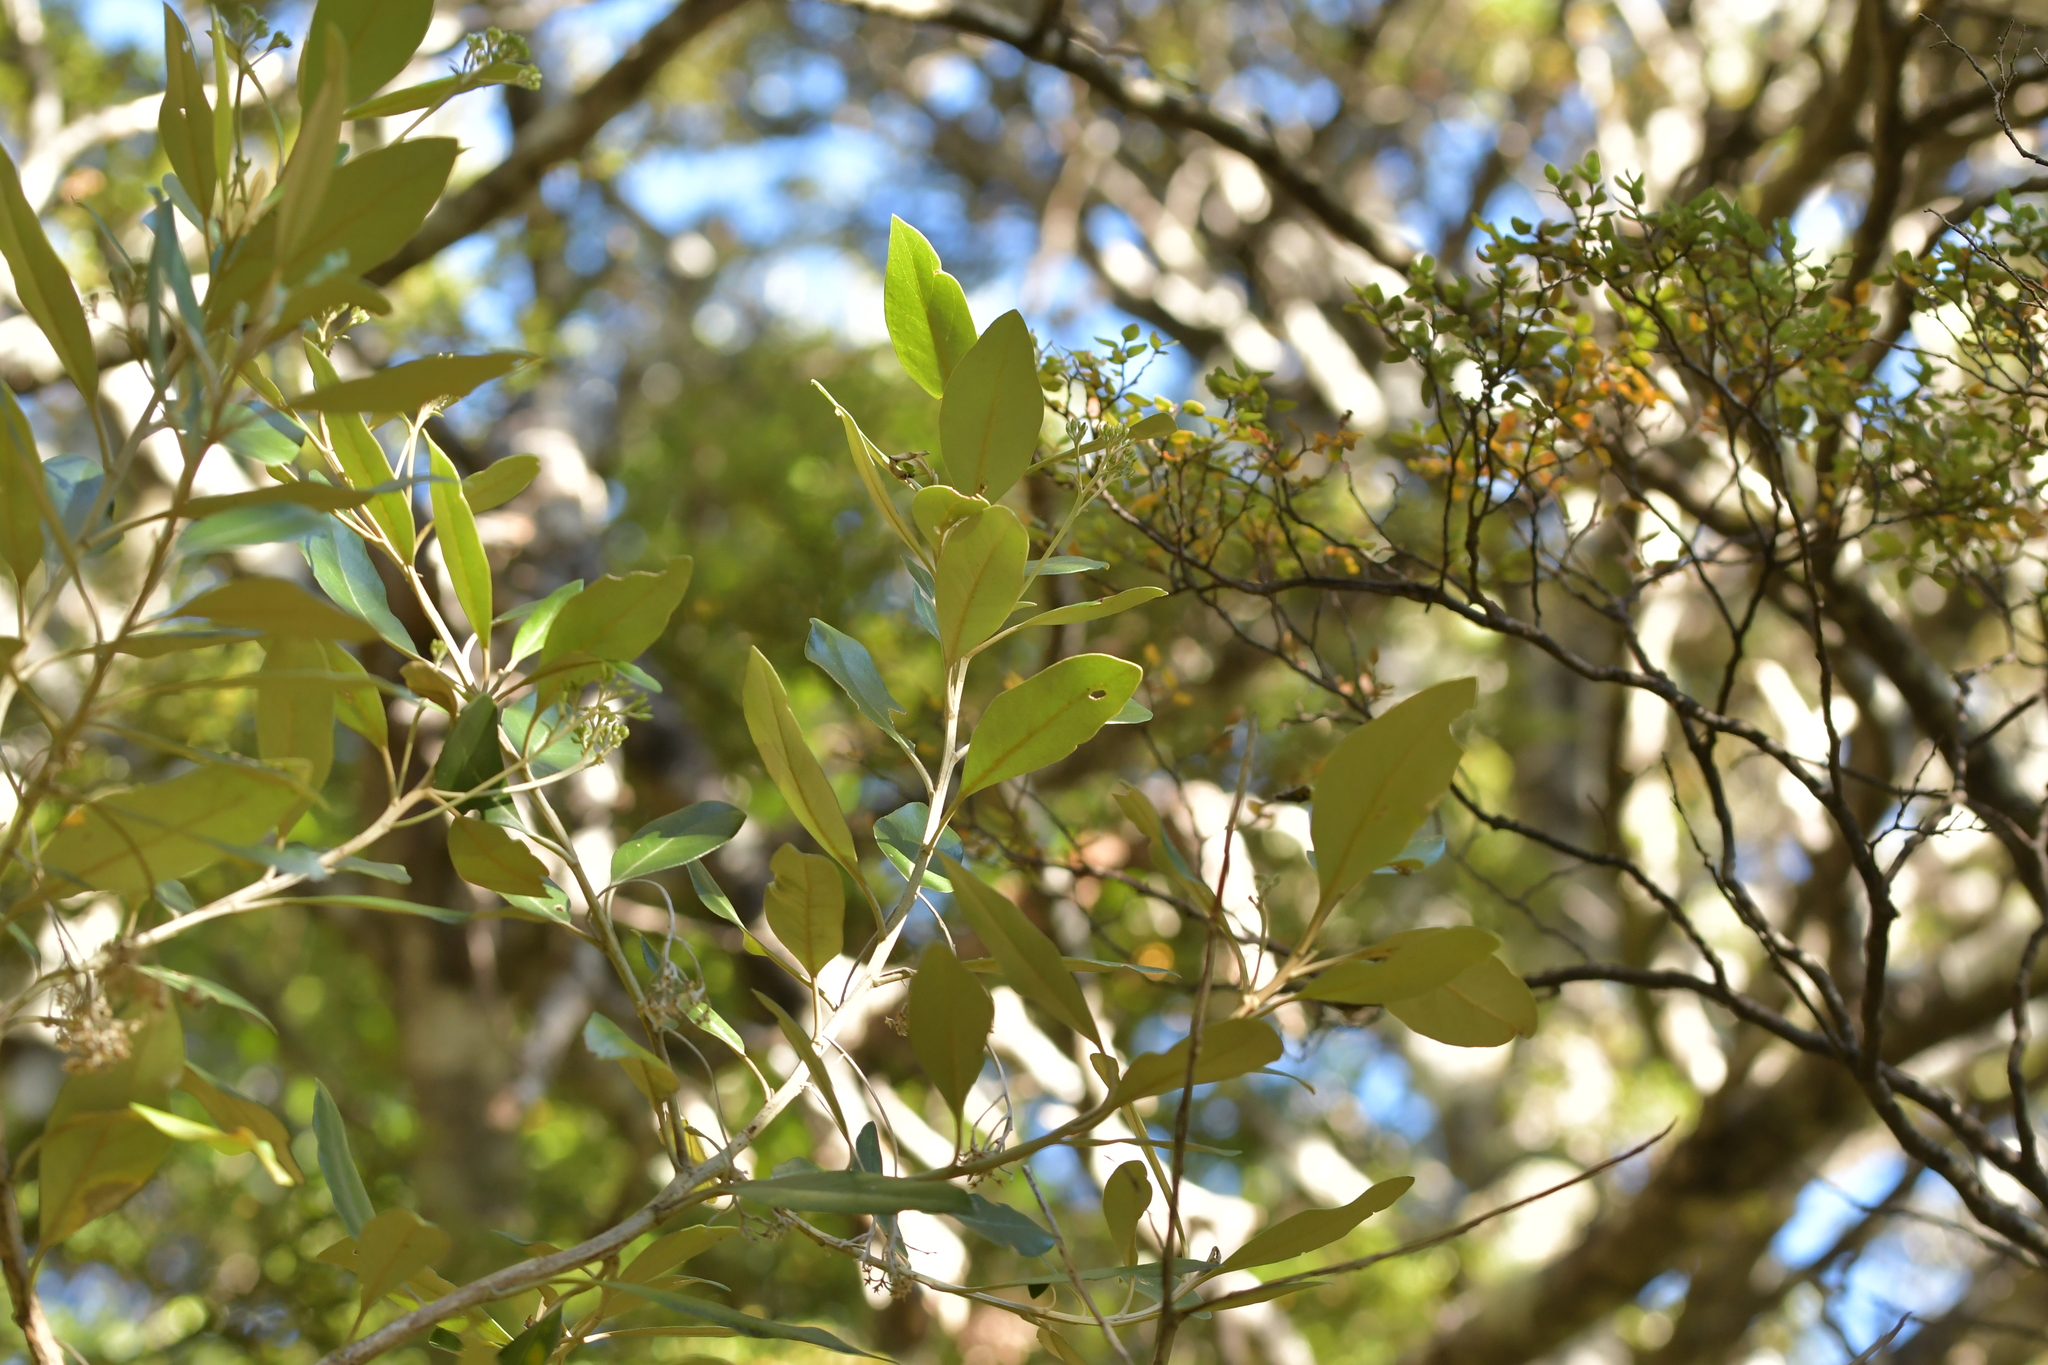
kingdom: Plantae
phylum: Tracheophyta
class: Magnoliopsida
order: Asterales
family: Asteraceae
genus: Olearia
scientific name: Olearia avicenniifolia
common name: Mangrove-leaf daisybush
